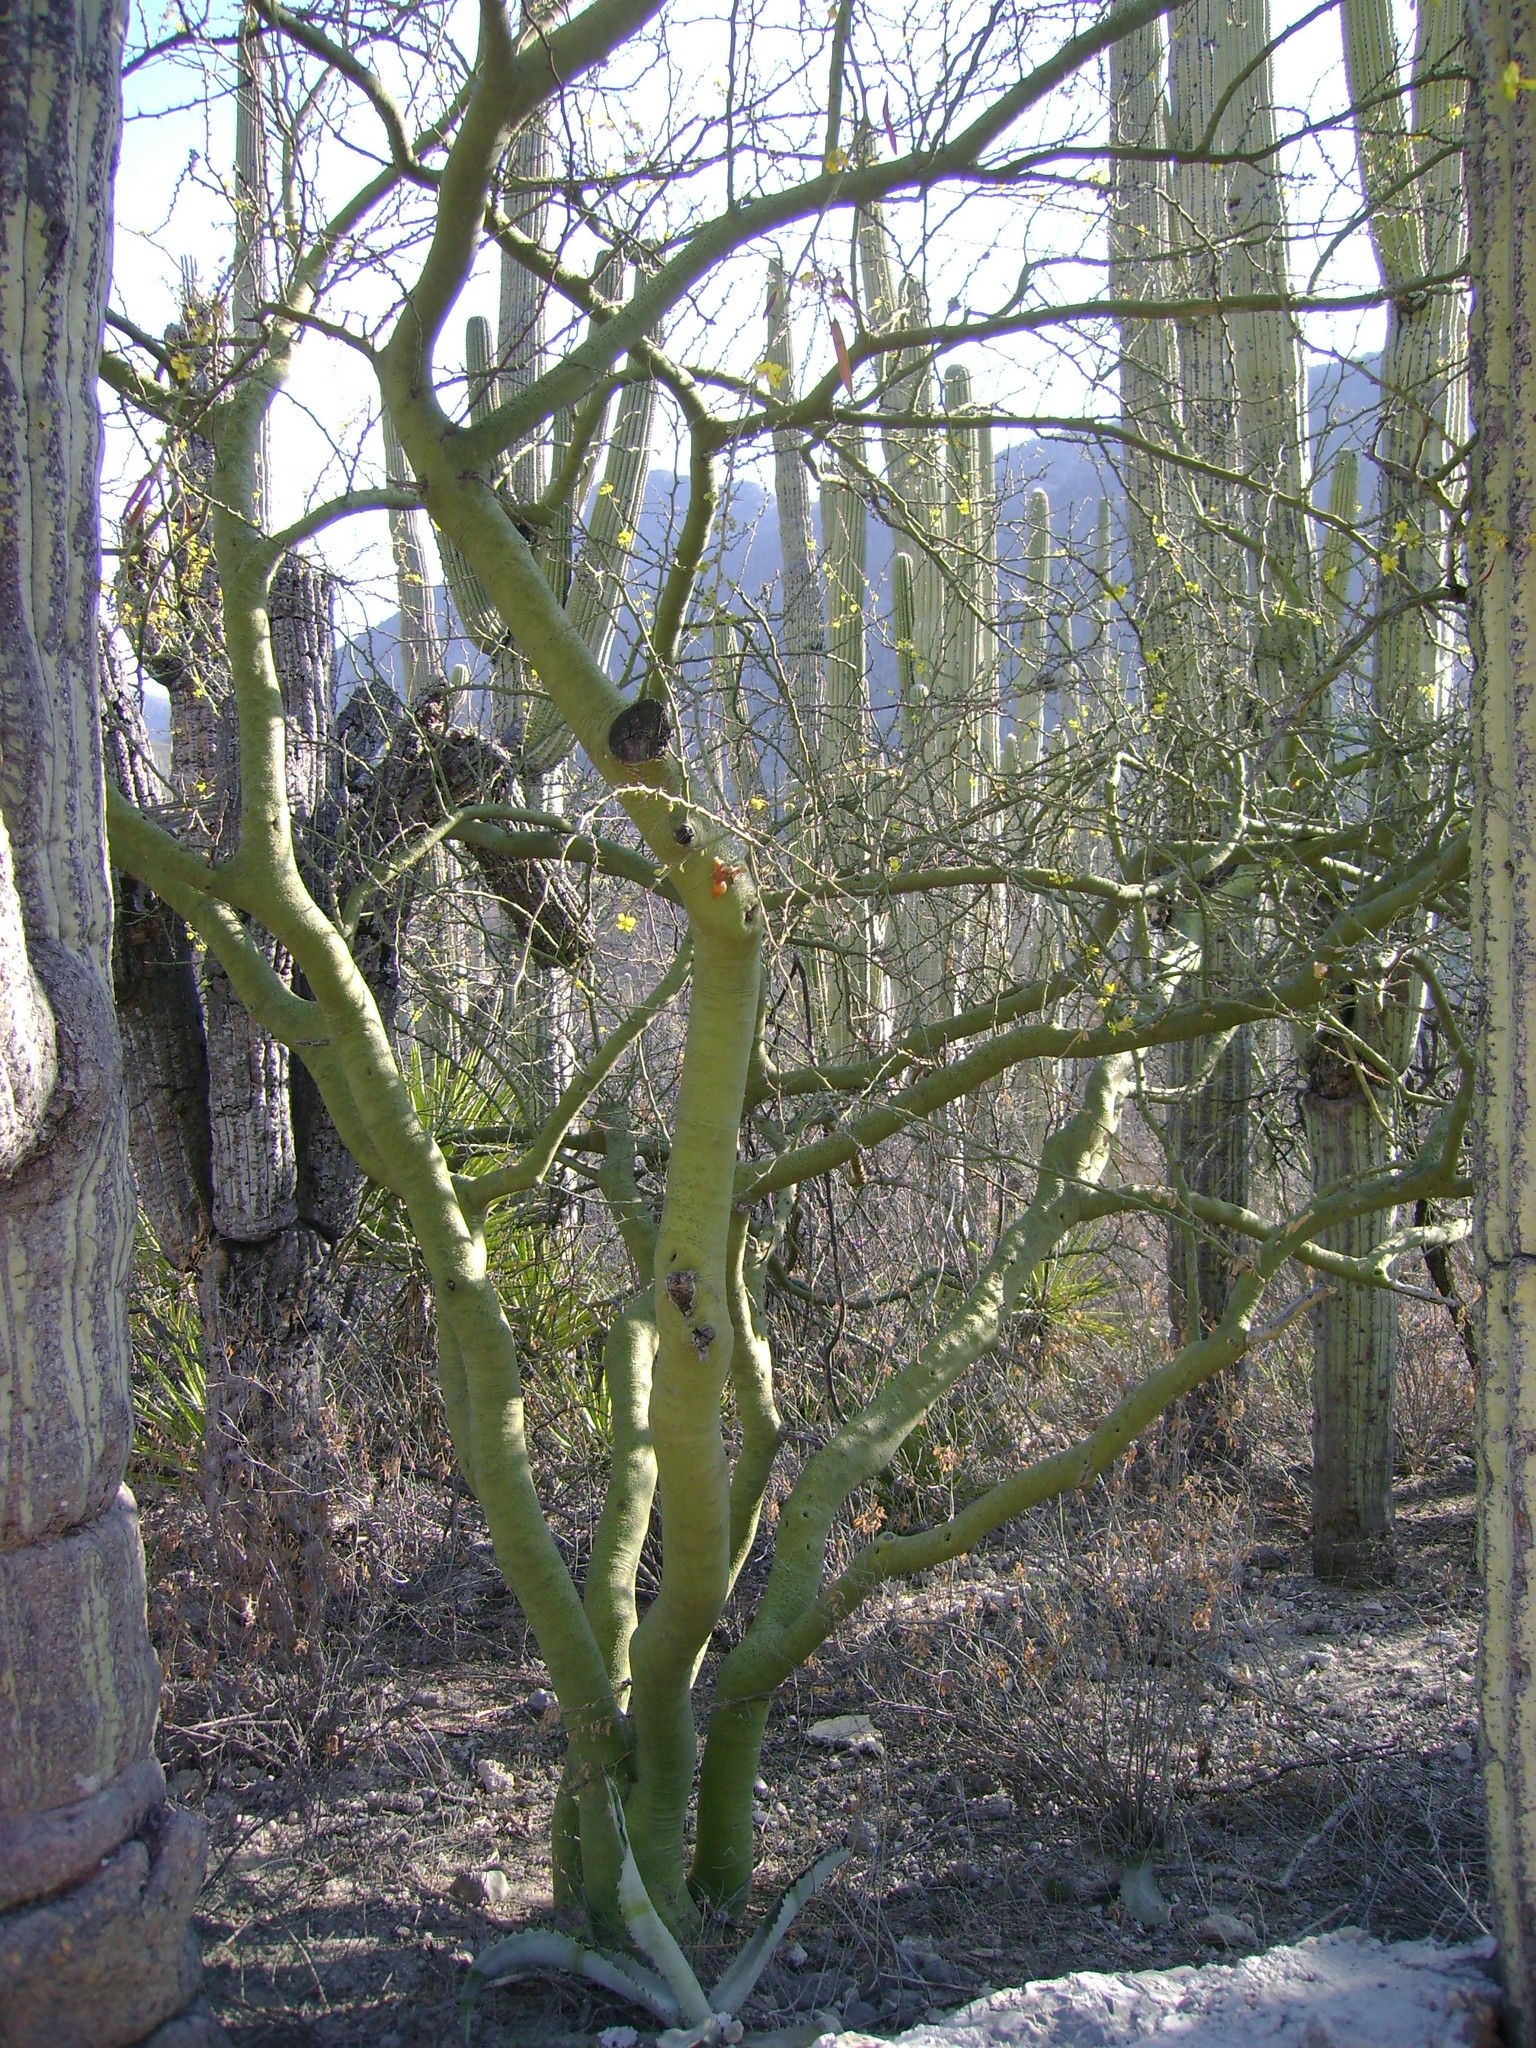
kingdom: Plantae
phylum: Tracheophyta
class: Magnoliopsida
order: Fabales
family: Fabaceae
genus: Parkinsonia
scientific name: Parkinsonia praecox
